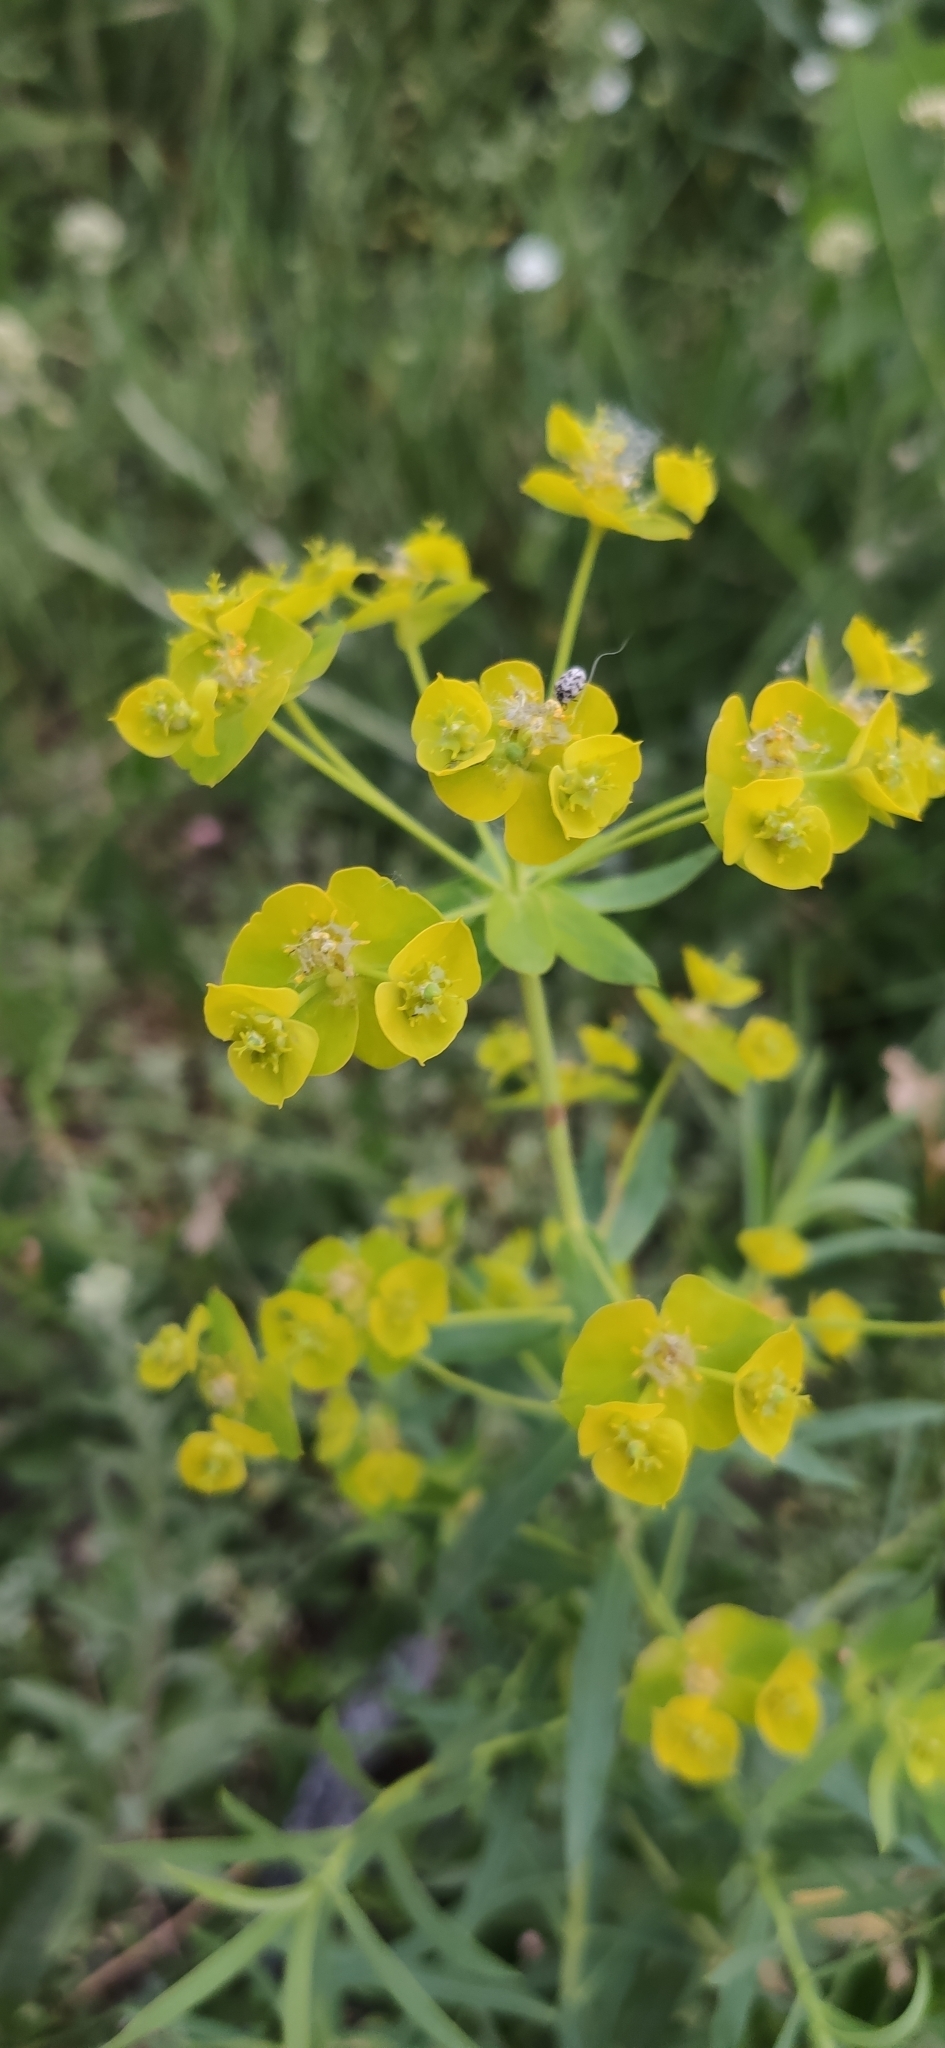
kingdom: Plantae
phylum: Tracheophyta
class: Magnoliopsida
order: Malpighiales
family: Euphorbiaceae
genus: Euphorbia
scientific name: Euphorbia virgata
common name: Leafy spurge
